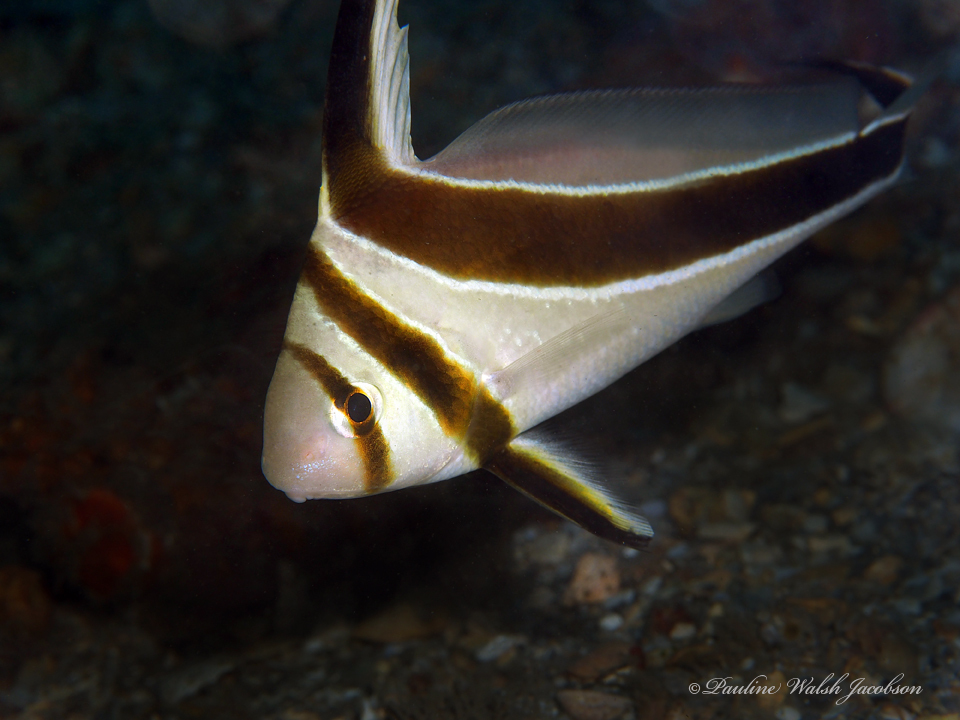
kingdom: Animalia
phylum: Chordata
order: Perciformes
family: Sciaenidae
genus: Equetus
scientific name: Equetus lanceolatus
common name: Jackknife fish
